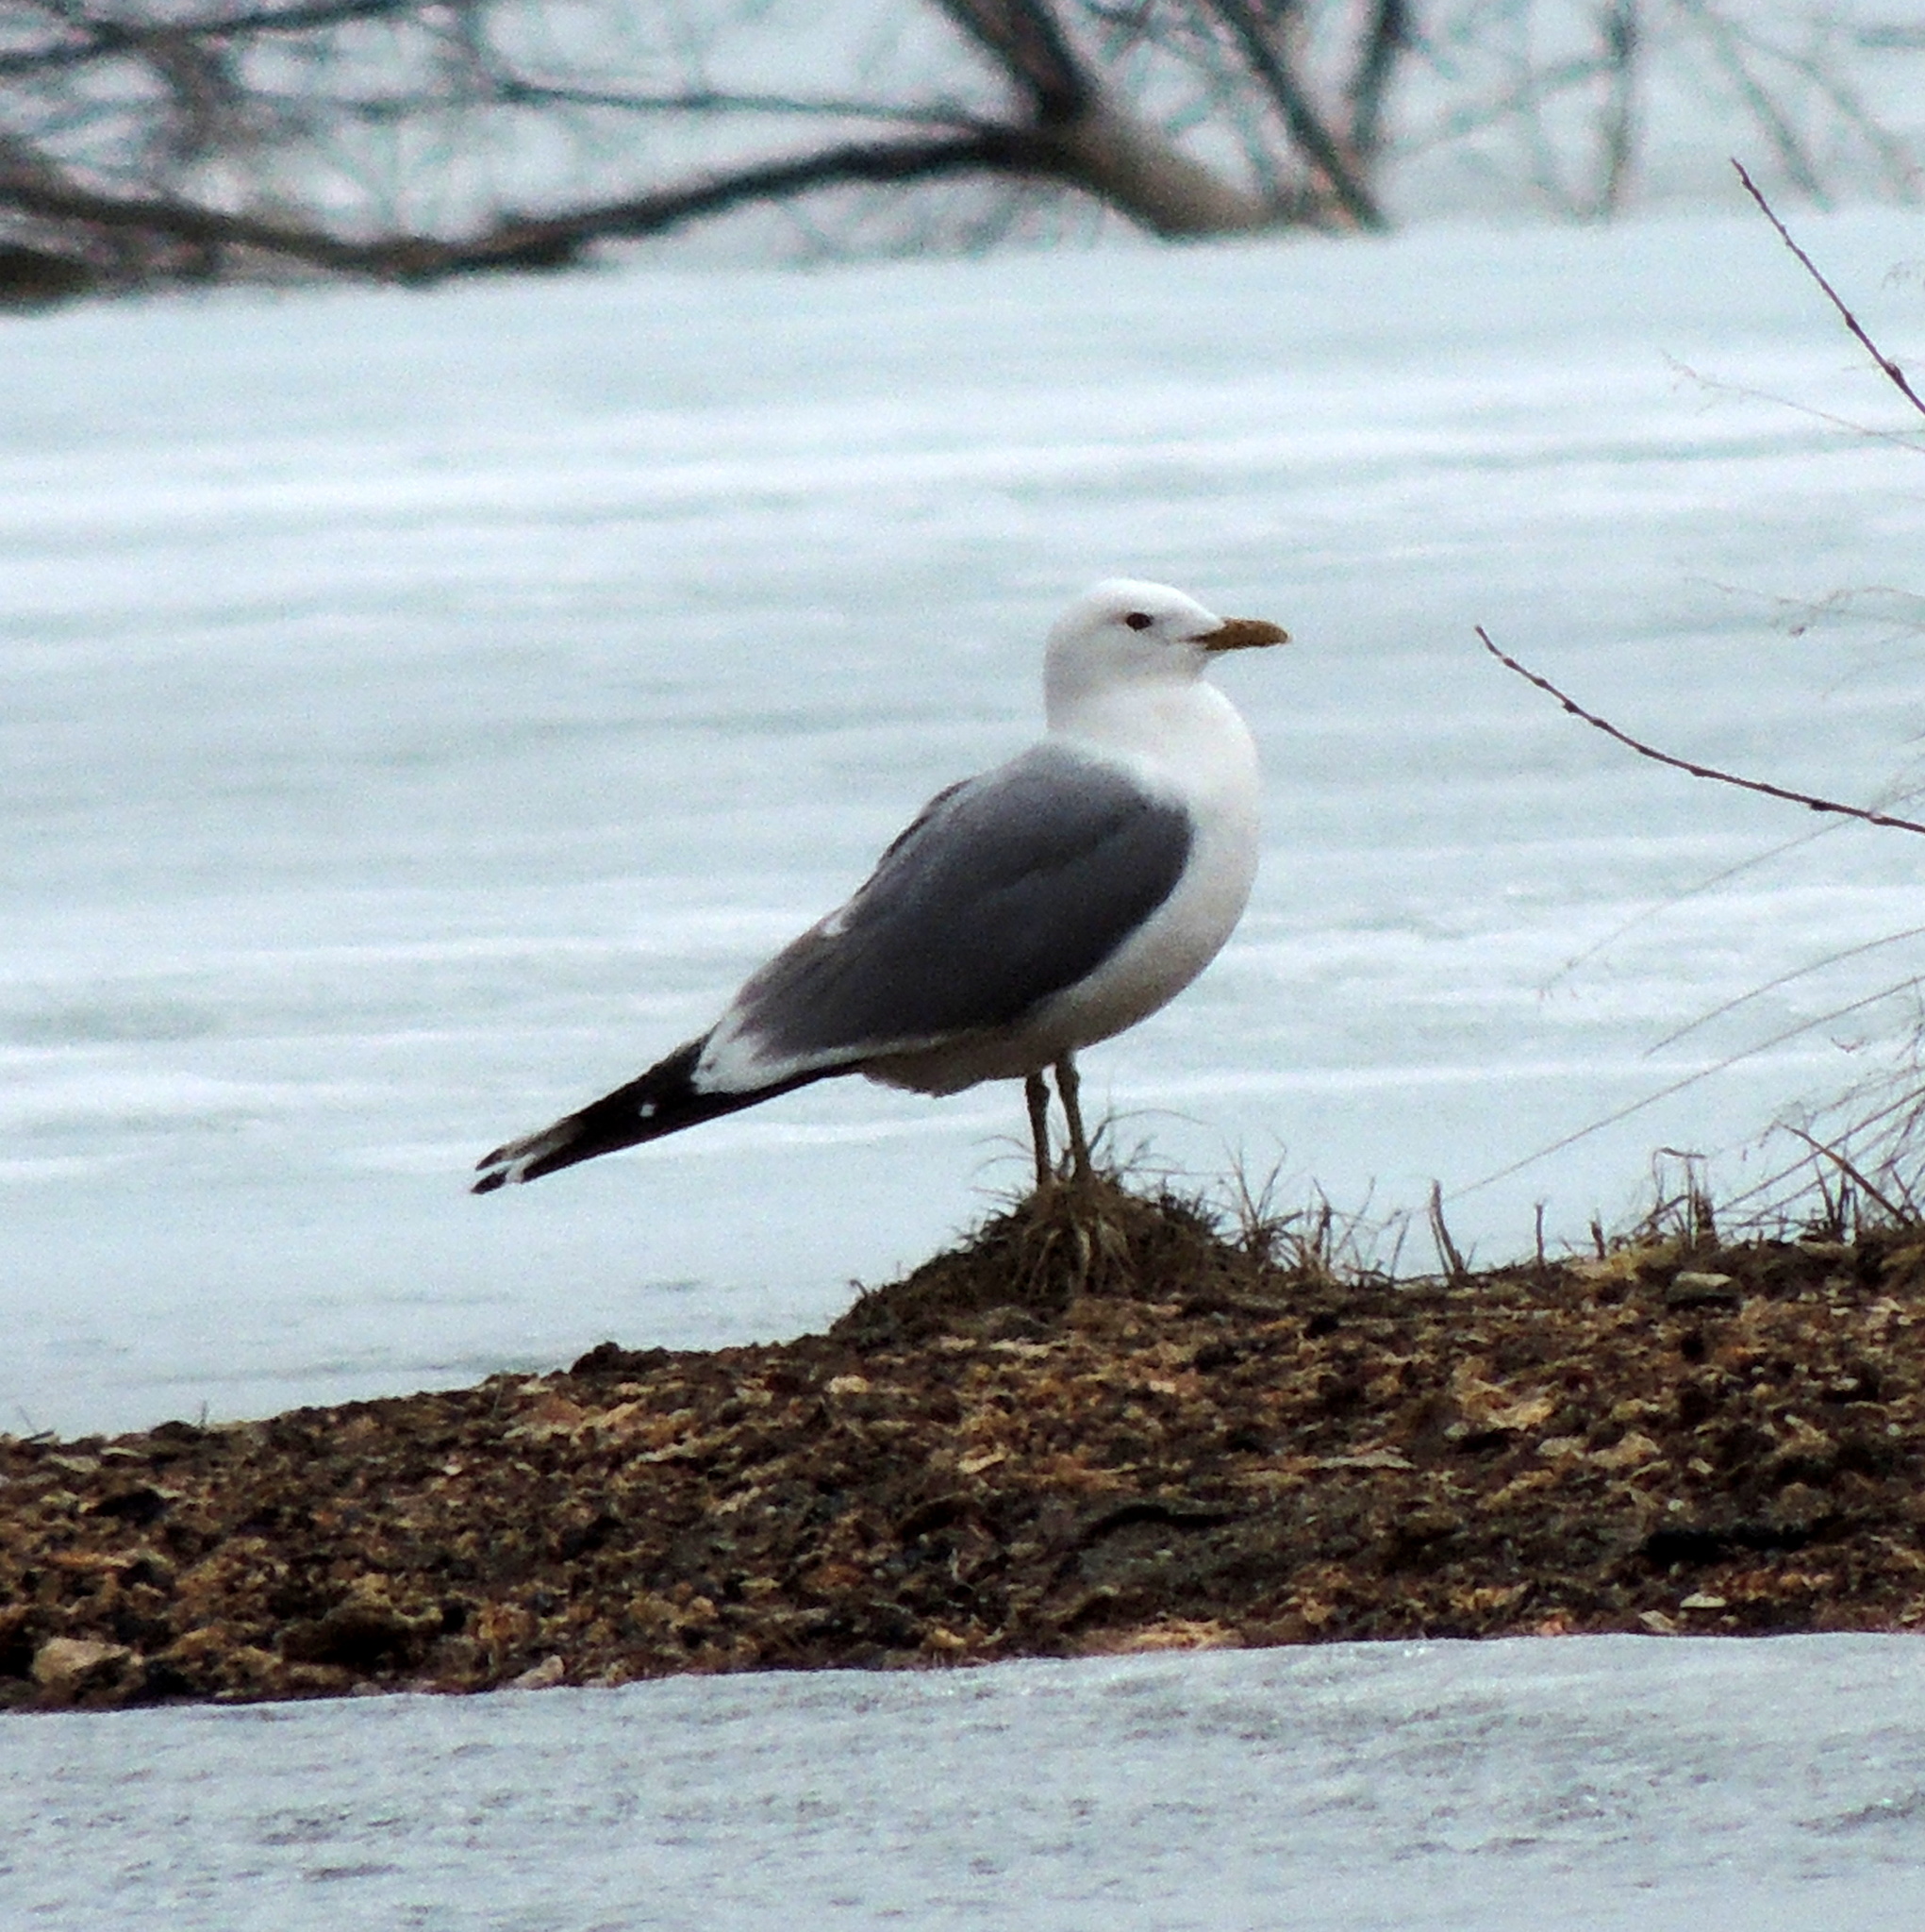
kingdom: Animalia
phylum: Chordata
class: Aves
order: Charadriiformes
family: Laridae
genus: Larus
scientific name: Larus canus
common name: Mew gull
